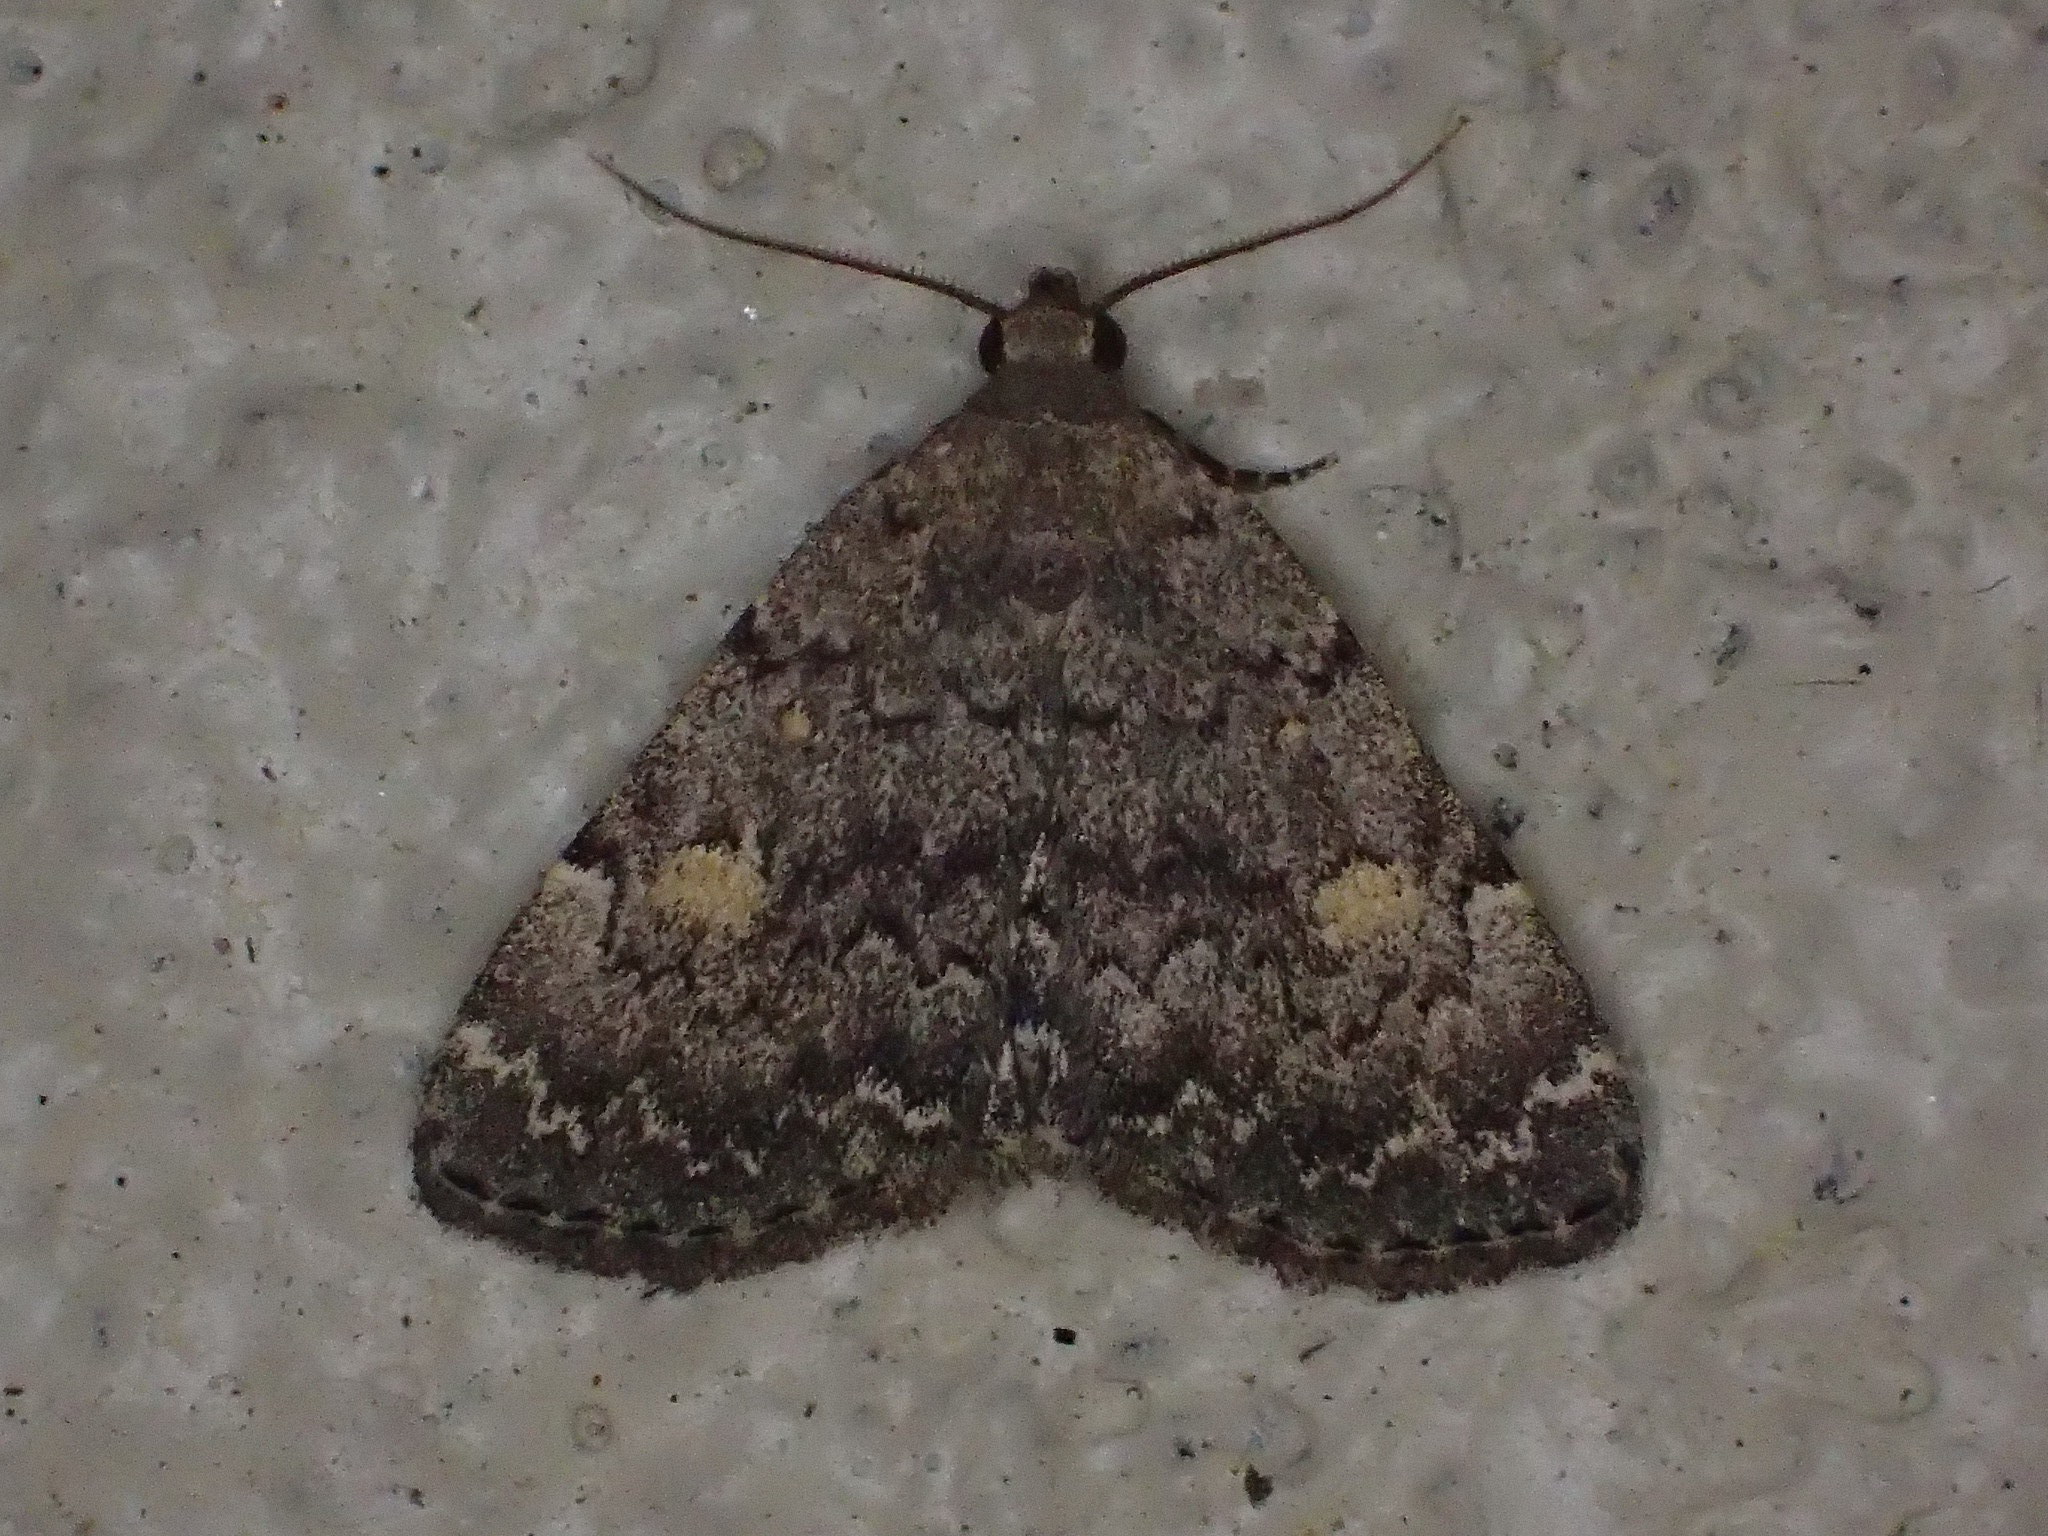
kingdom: Animalia
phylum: Arthropoda
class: Insecta
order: Lepidoptera
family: Erebidae
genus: Idia
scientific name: Idia aemula
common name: Common idia moth
